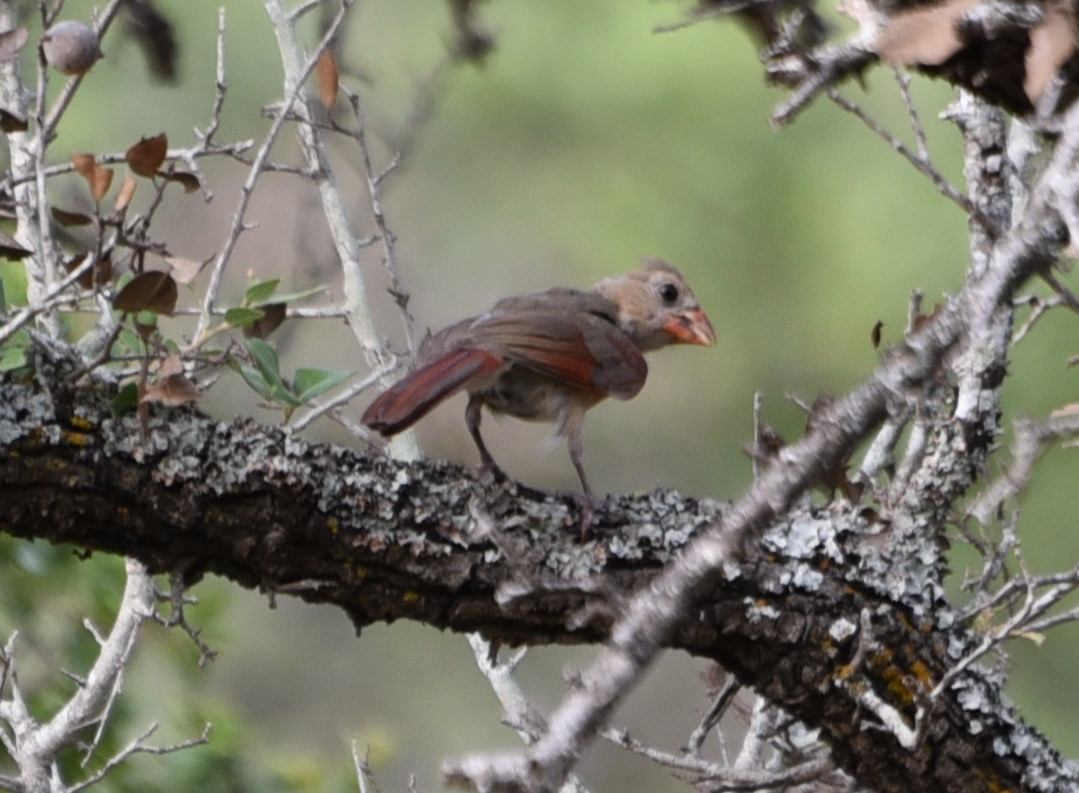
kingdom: Animalia
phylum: Chordata
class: Aves
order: Passeriformes
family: Cardinalidae
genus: Cardinalis
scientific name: Cardinalis cardinalis
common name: Northern cardinal
